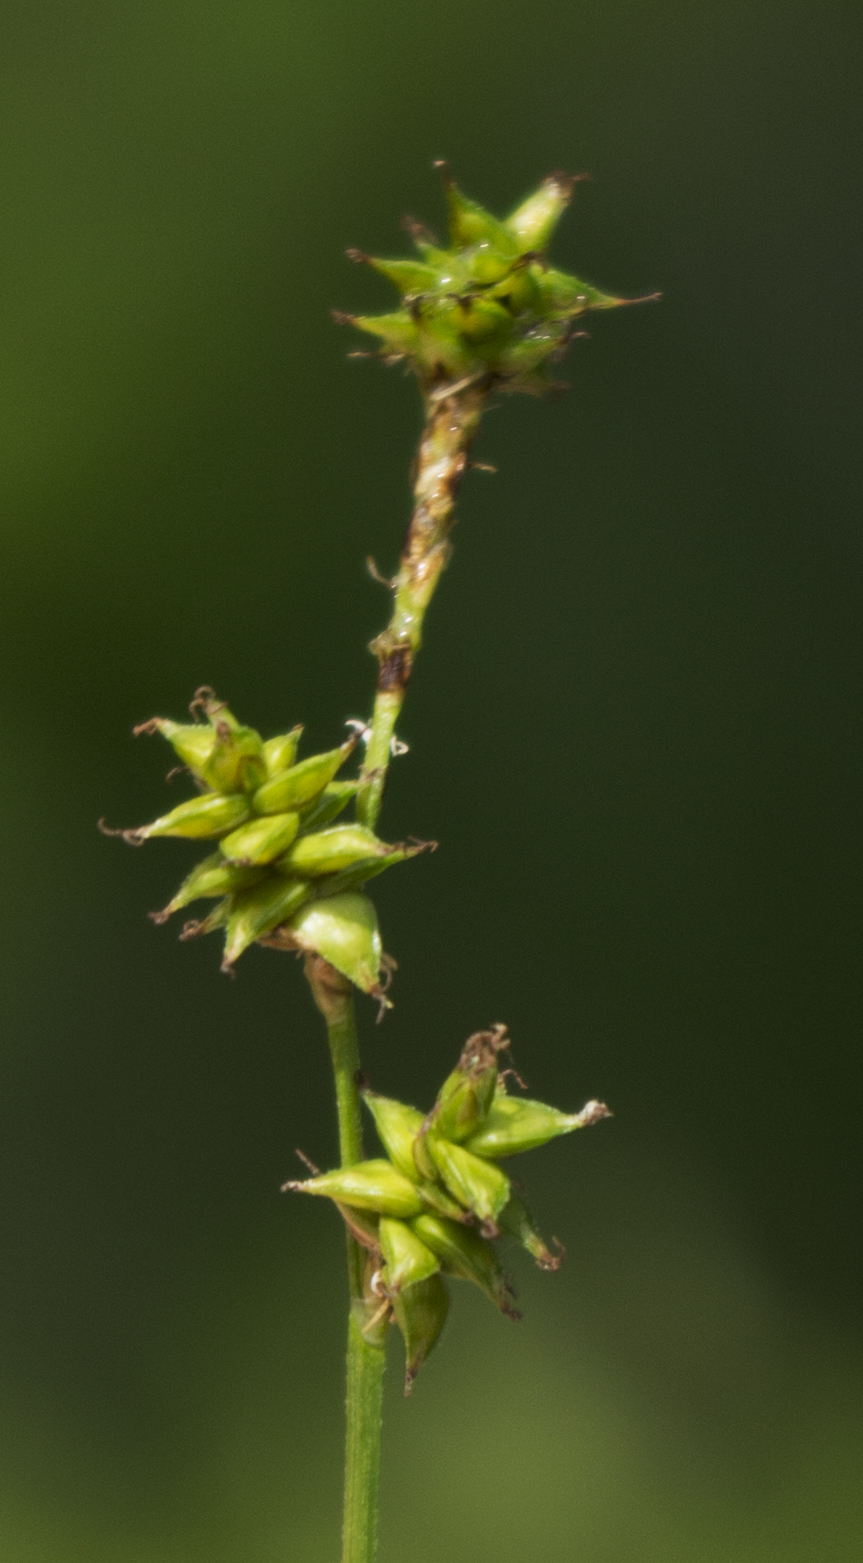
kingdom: Plantae
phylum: Tracheophyta
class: Liliopsida
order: Poales
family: Cyperaceae
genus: Carex
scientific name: Carex interior
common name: Inland sedge
